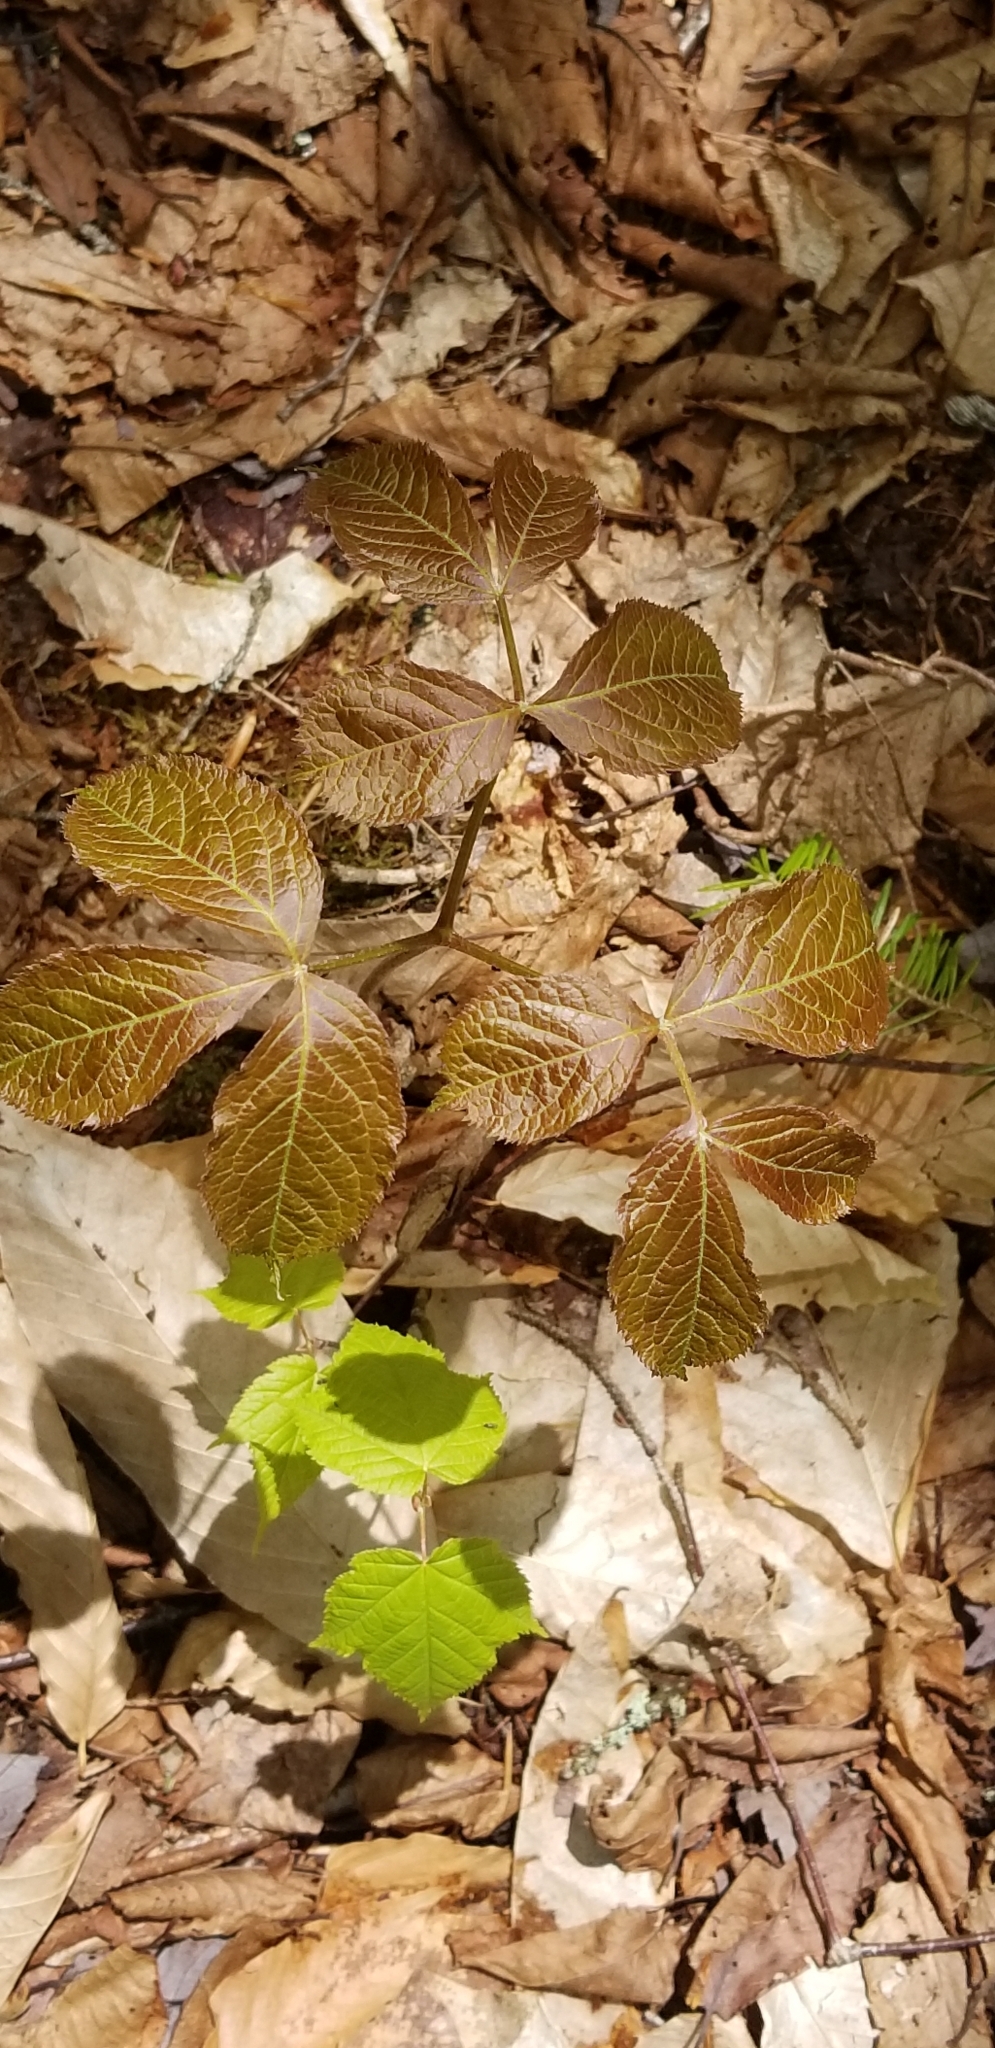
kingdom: Plantae
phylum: Tracheophyta
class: Magnoliopsida
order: Apiales
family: Araliaceae
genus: Aralia
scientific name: Aralia nudicaulis
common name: Wild sarsaparilla
